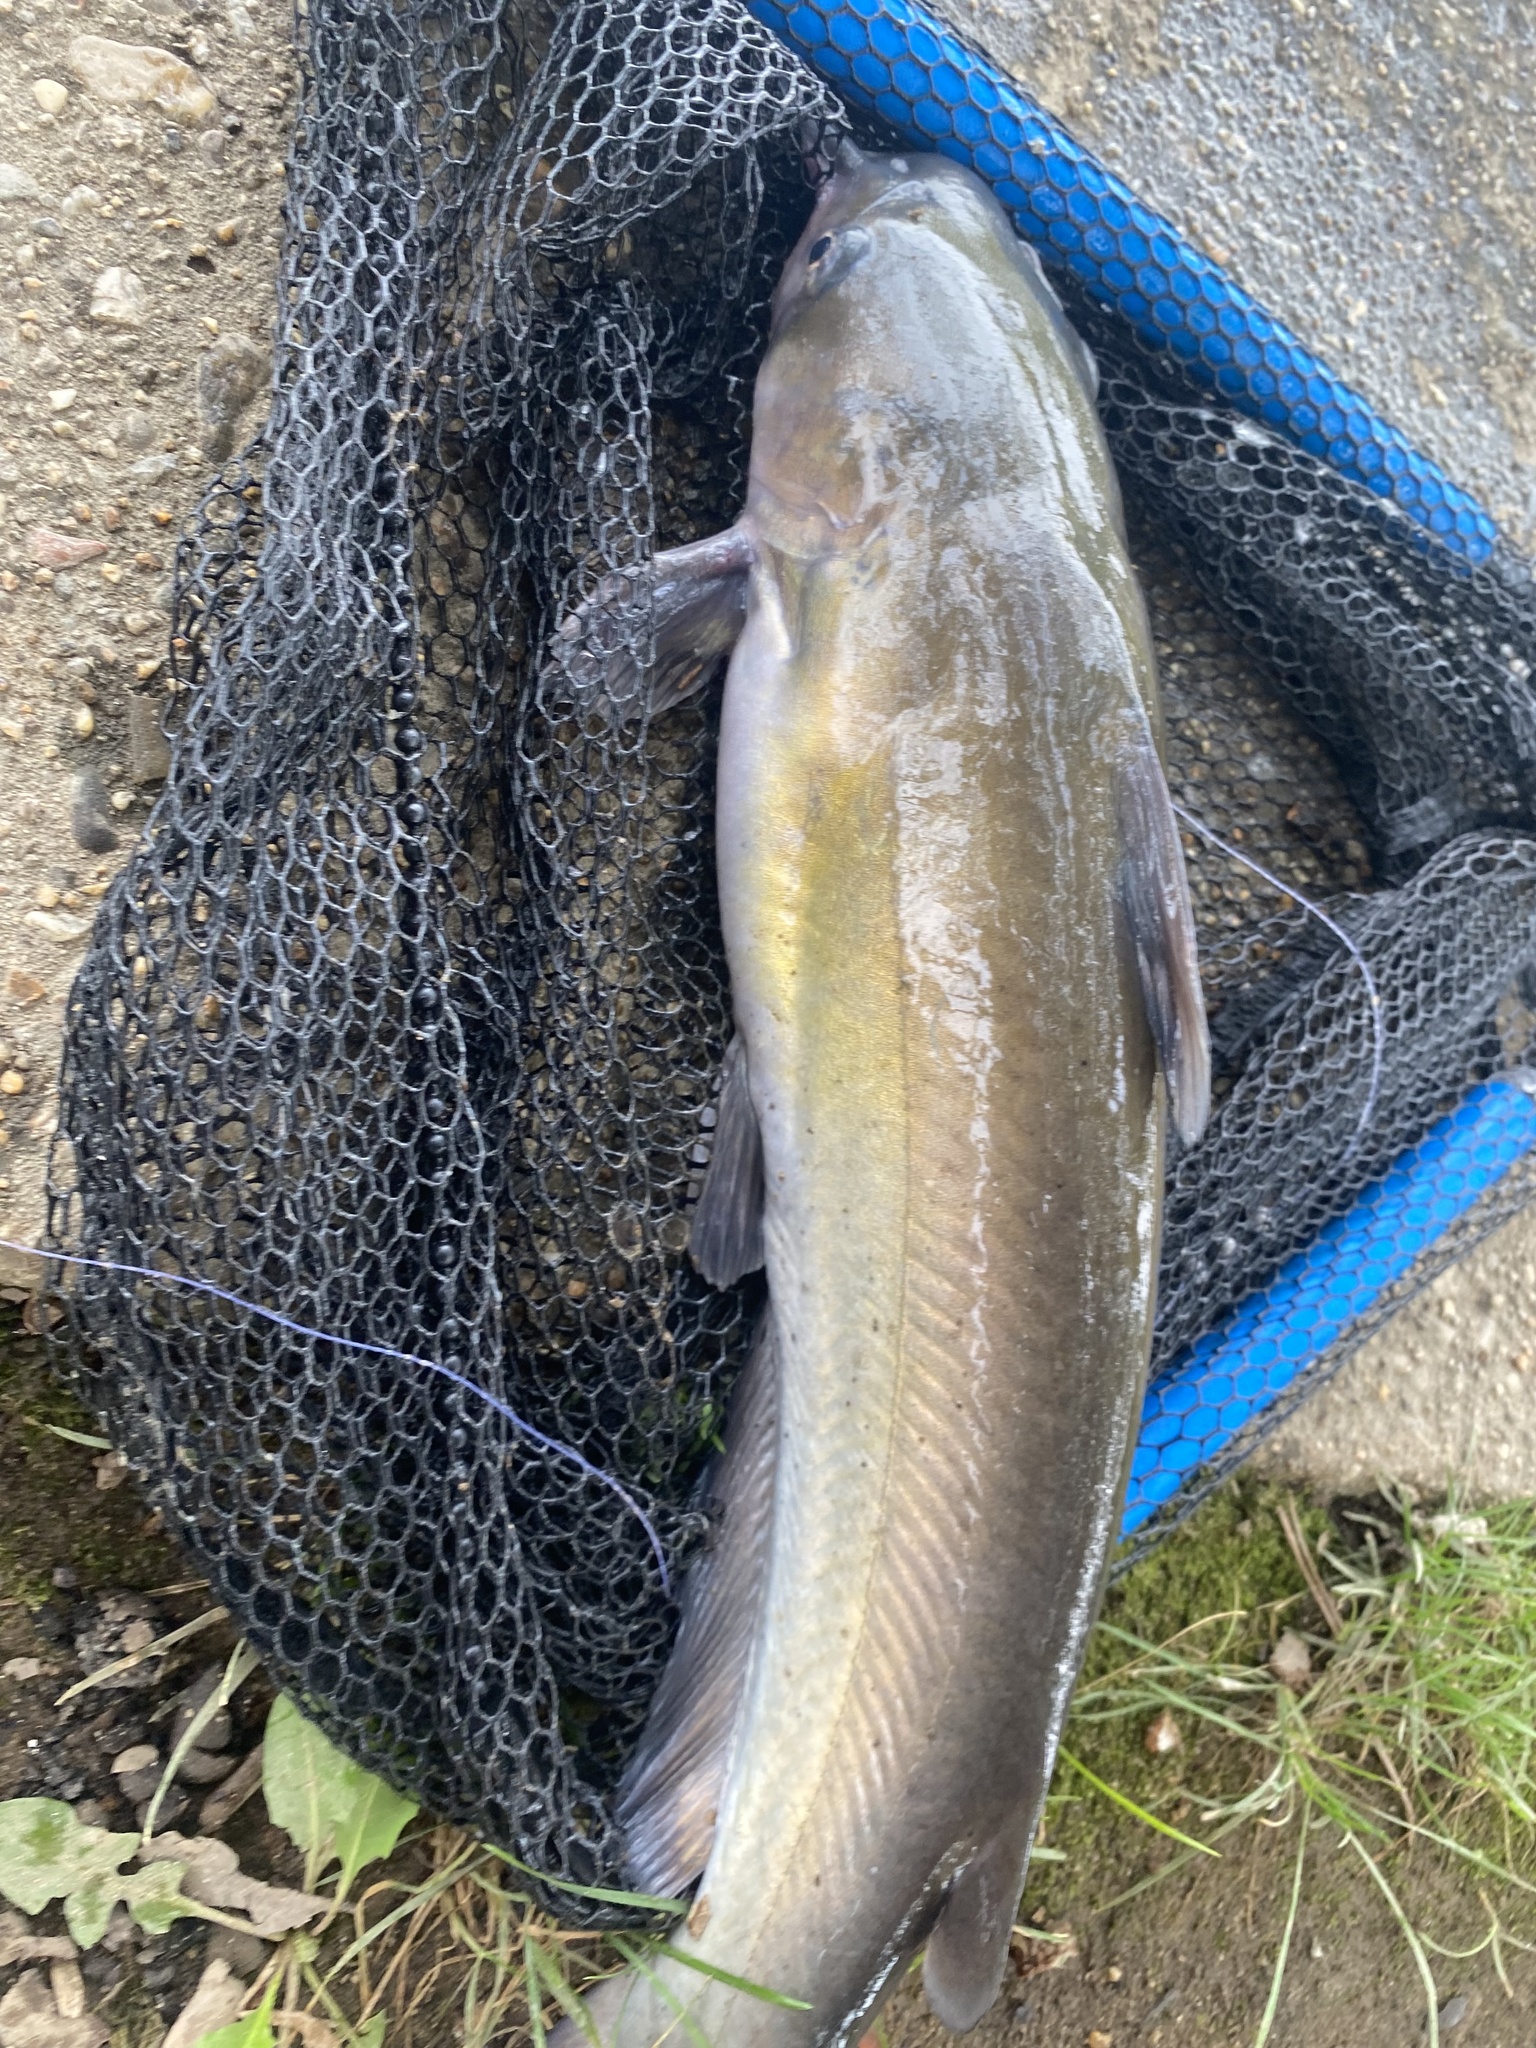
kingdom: Animalia
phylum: Chordata
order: Siluriformes
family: Ictaluridae
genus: Ictalurus
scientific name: Ictalurus punctatus
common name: Channel catfish
